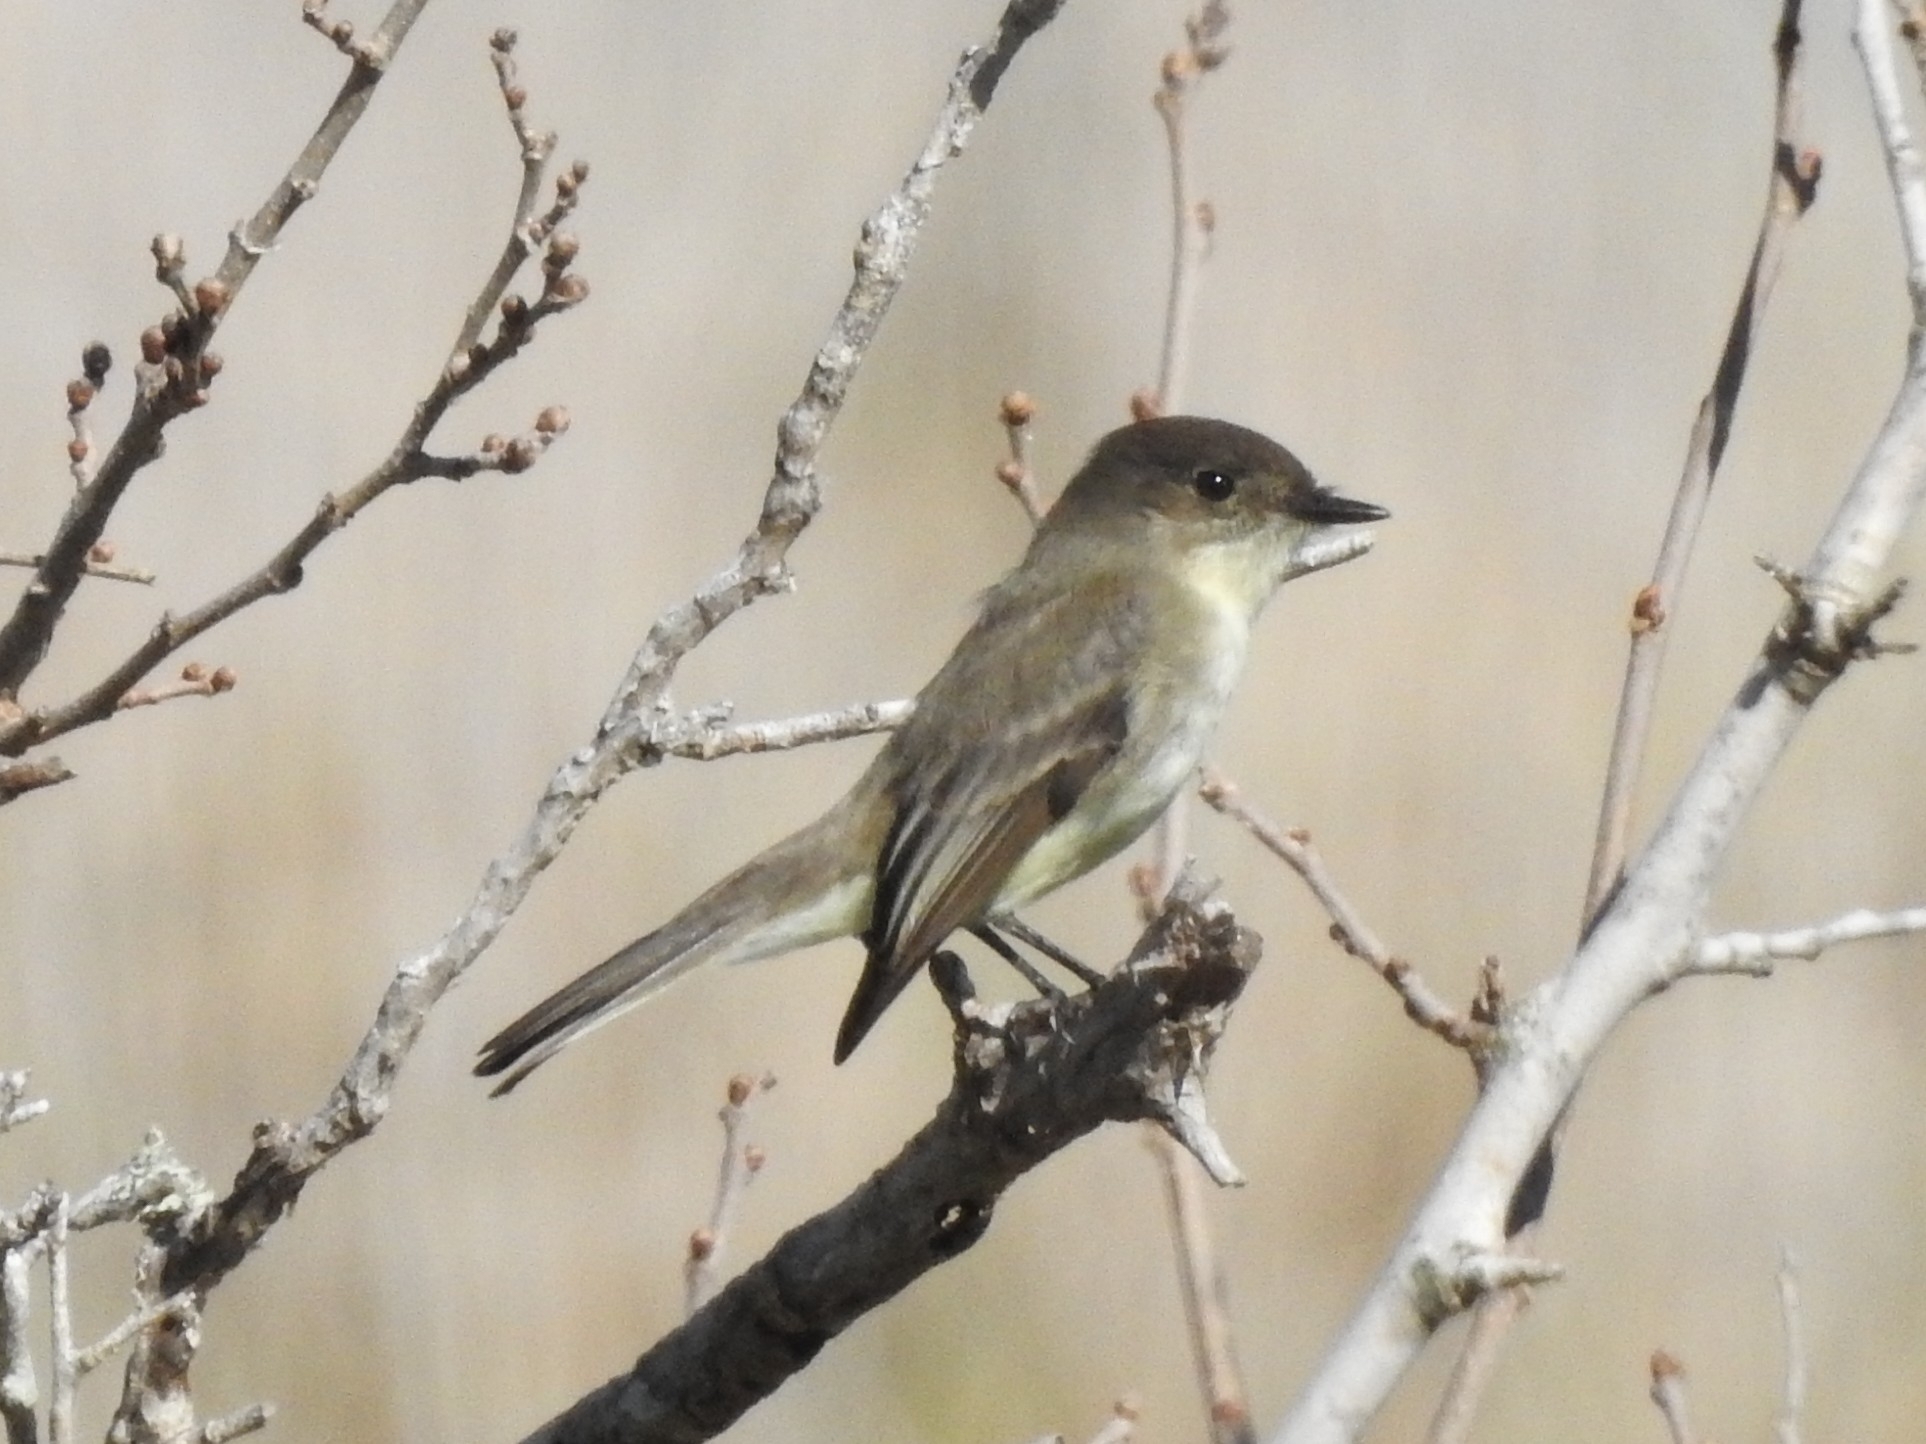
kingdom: Animalia
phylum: Chordata
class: Aves
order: Passeriformes
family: Tyrannidae
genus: Sayornis
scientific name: Sayornis phoebe
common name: Eastern phoebe
